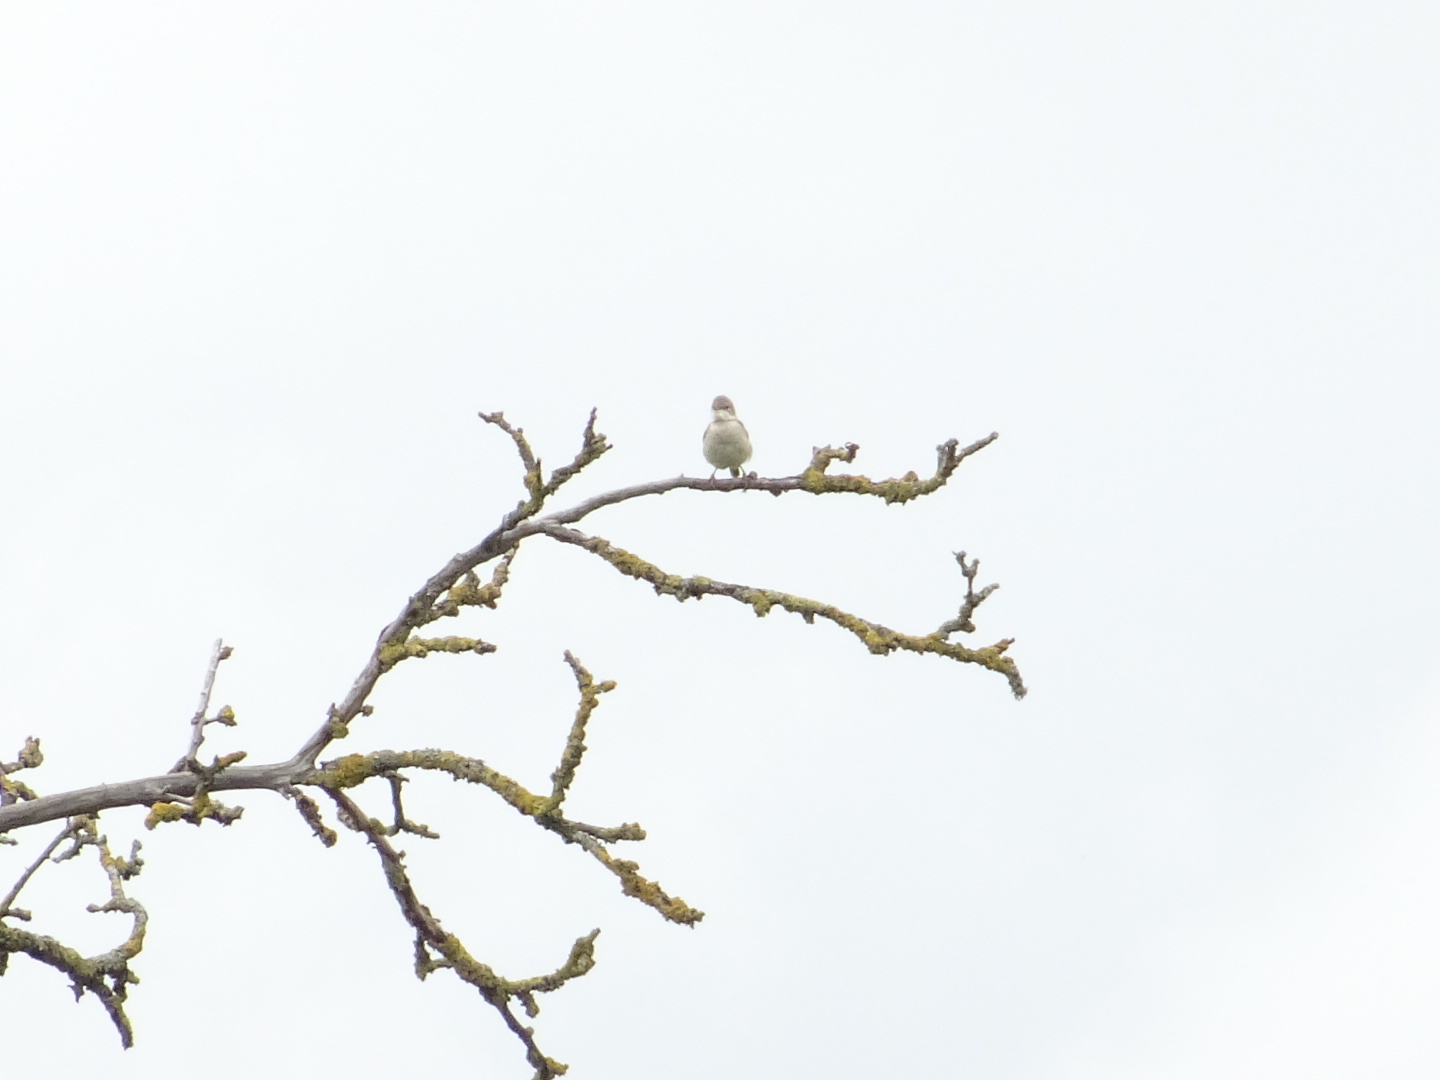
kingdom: Animalia
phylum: Chordata
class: Aves
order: Passeriformes
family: Sylviidae
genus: Sylvia
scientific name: Sylvia communis
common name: Common whitethroat
